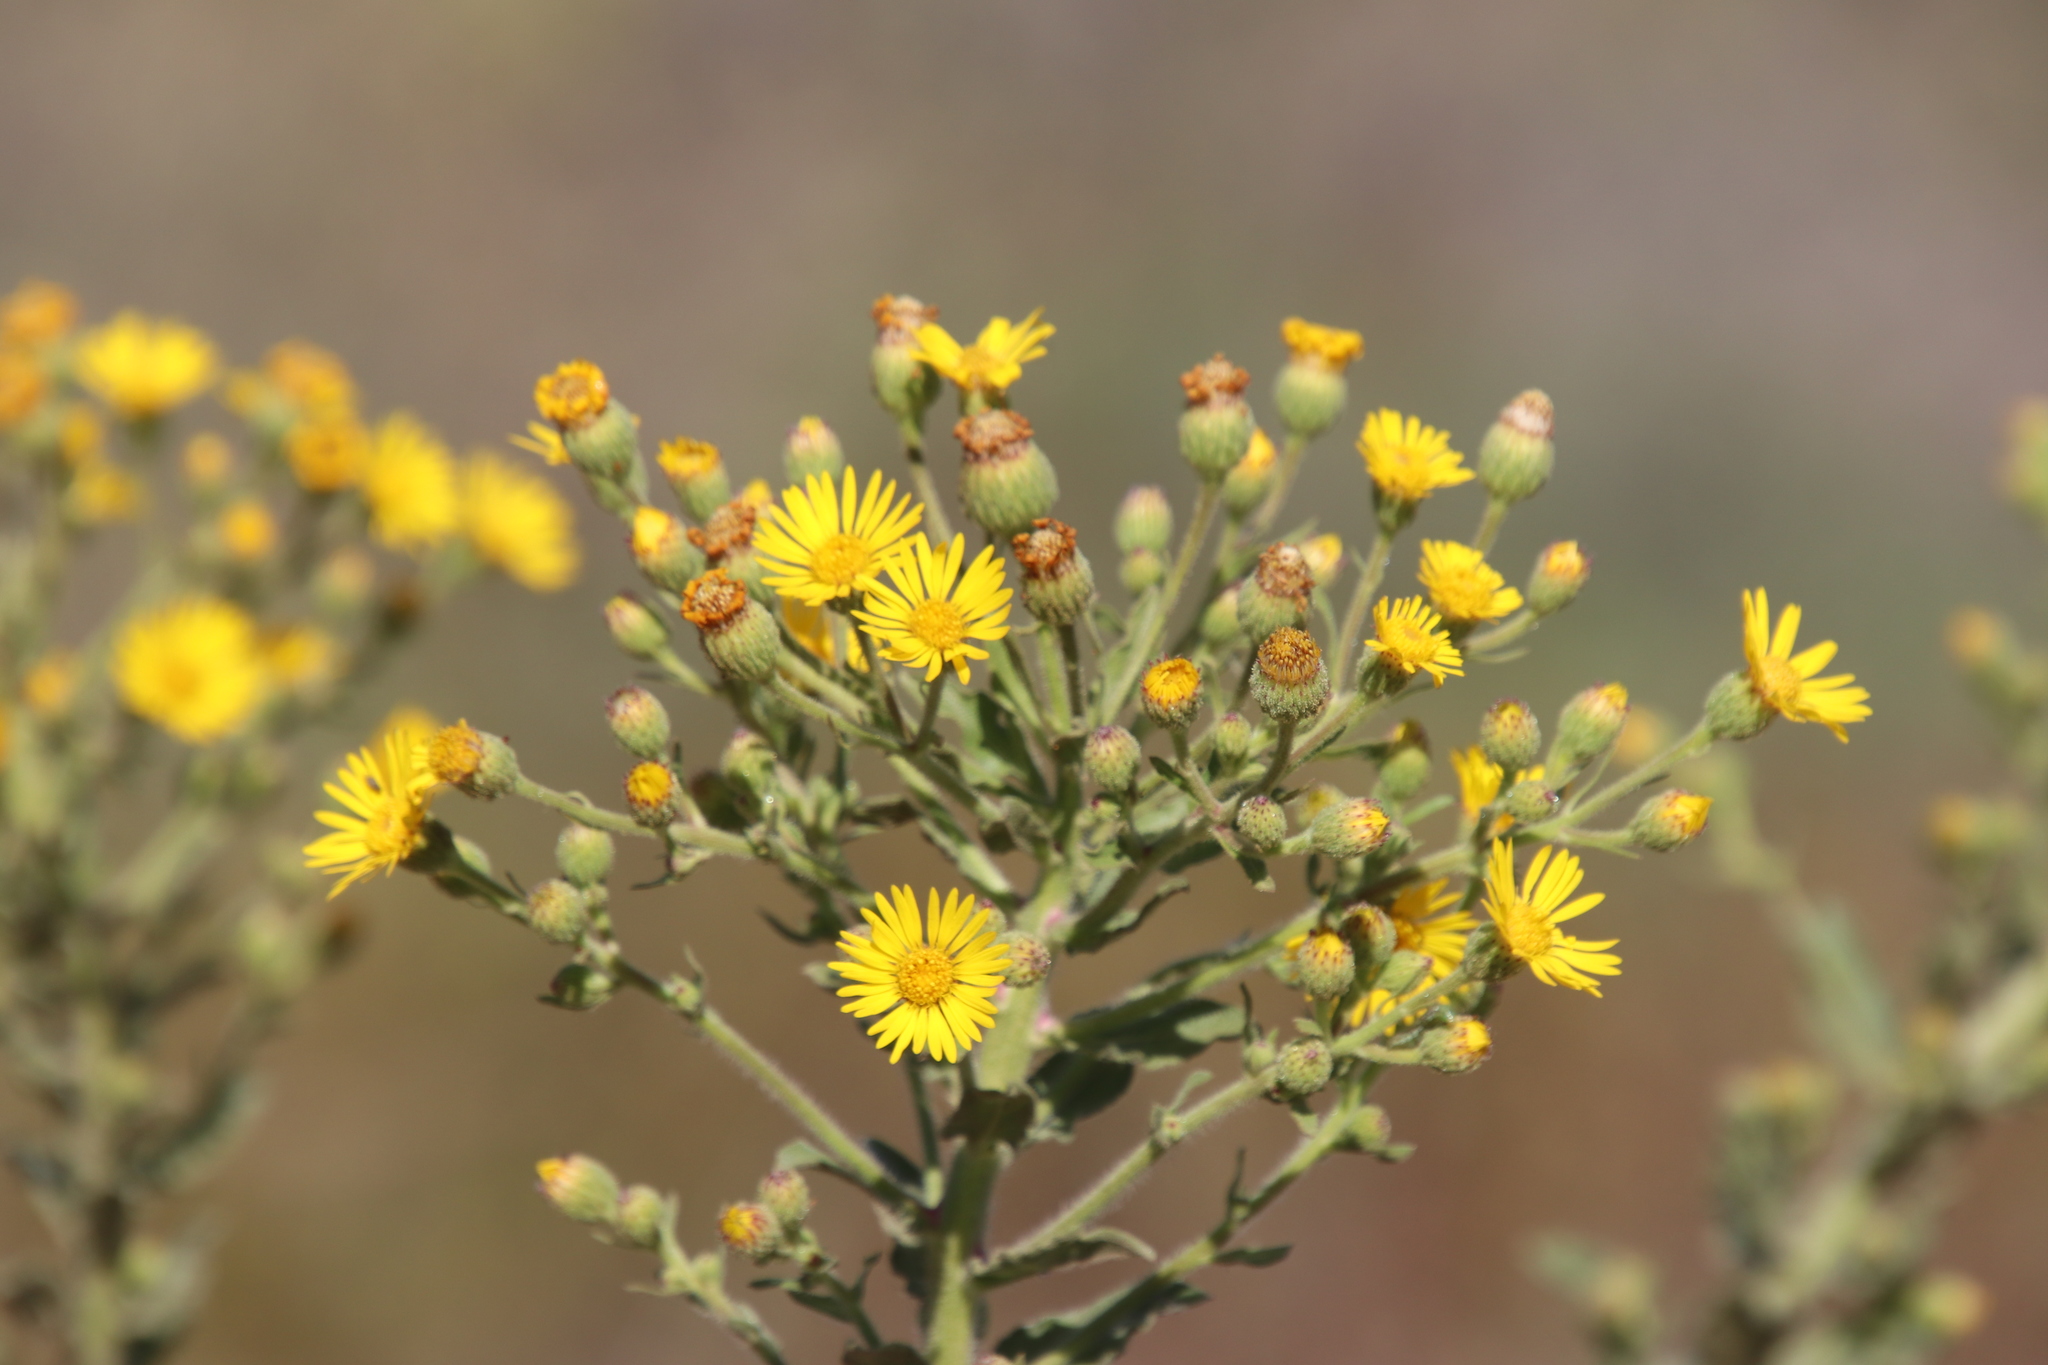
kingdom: Plantae
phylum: Tracheophyta
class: Magnoliopsida
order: Asterales
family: Asteraceae
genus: Heterotheca
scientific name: Heterotheca grandiflora
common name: Telegraphweed
